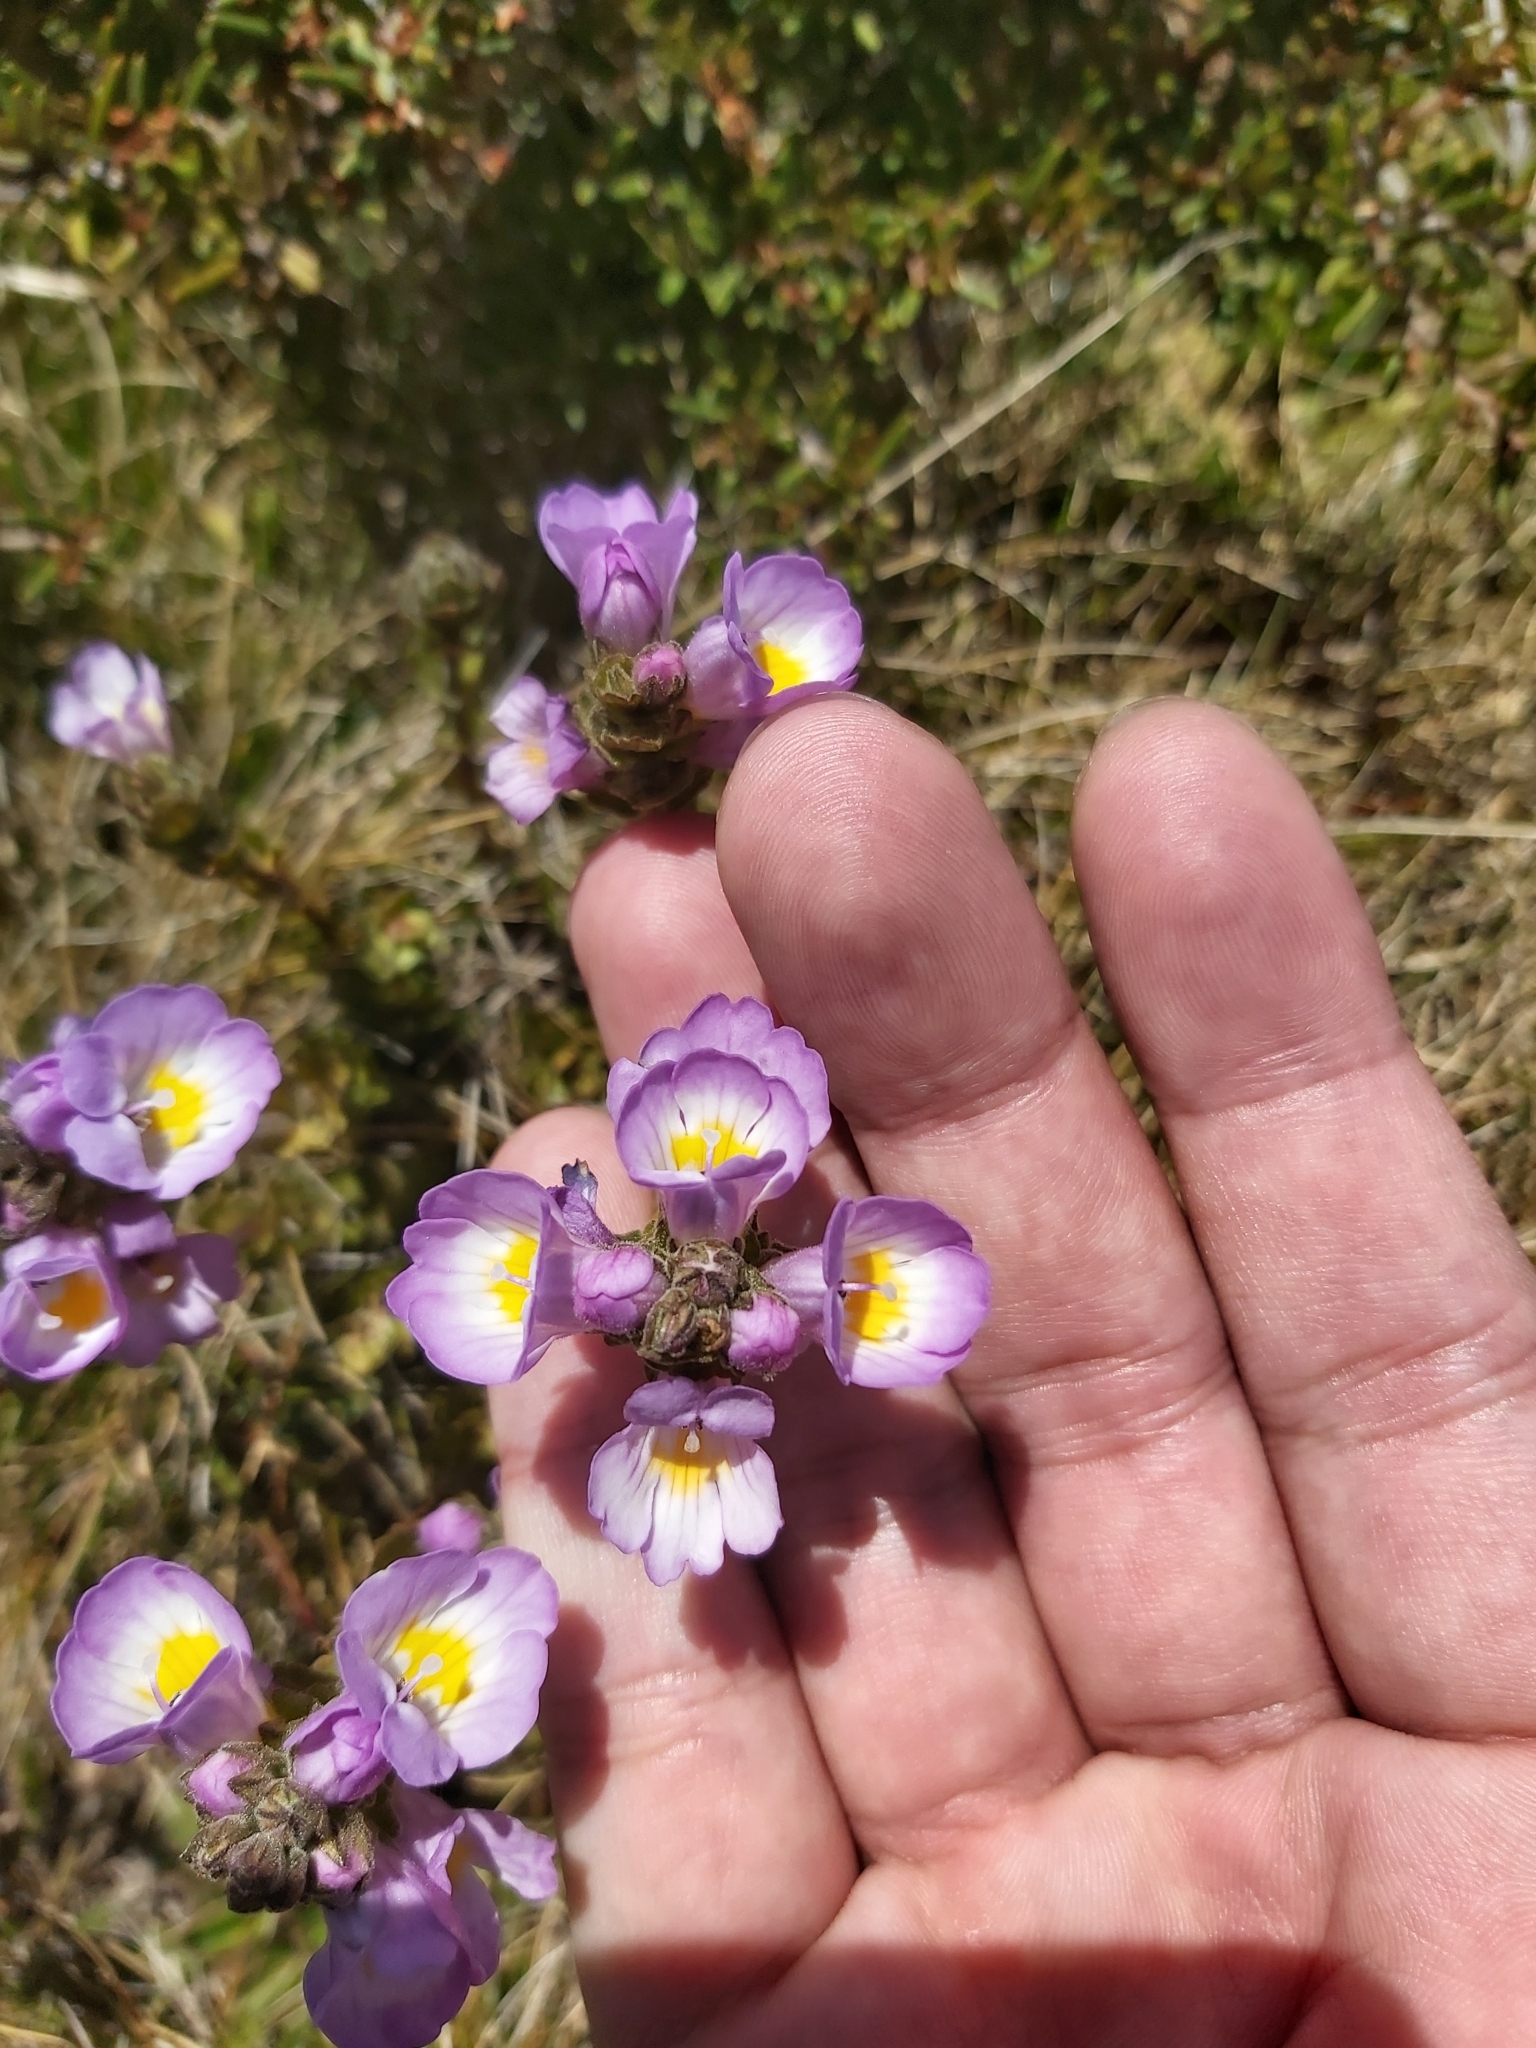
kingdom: Plantae
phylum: Tracheophyta
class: Magnoliopsida
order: Lamiales
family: Orobanchaceae
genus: Euphrasia
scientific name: Euphrasia collina
